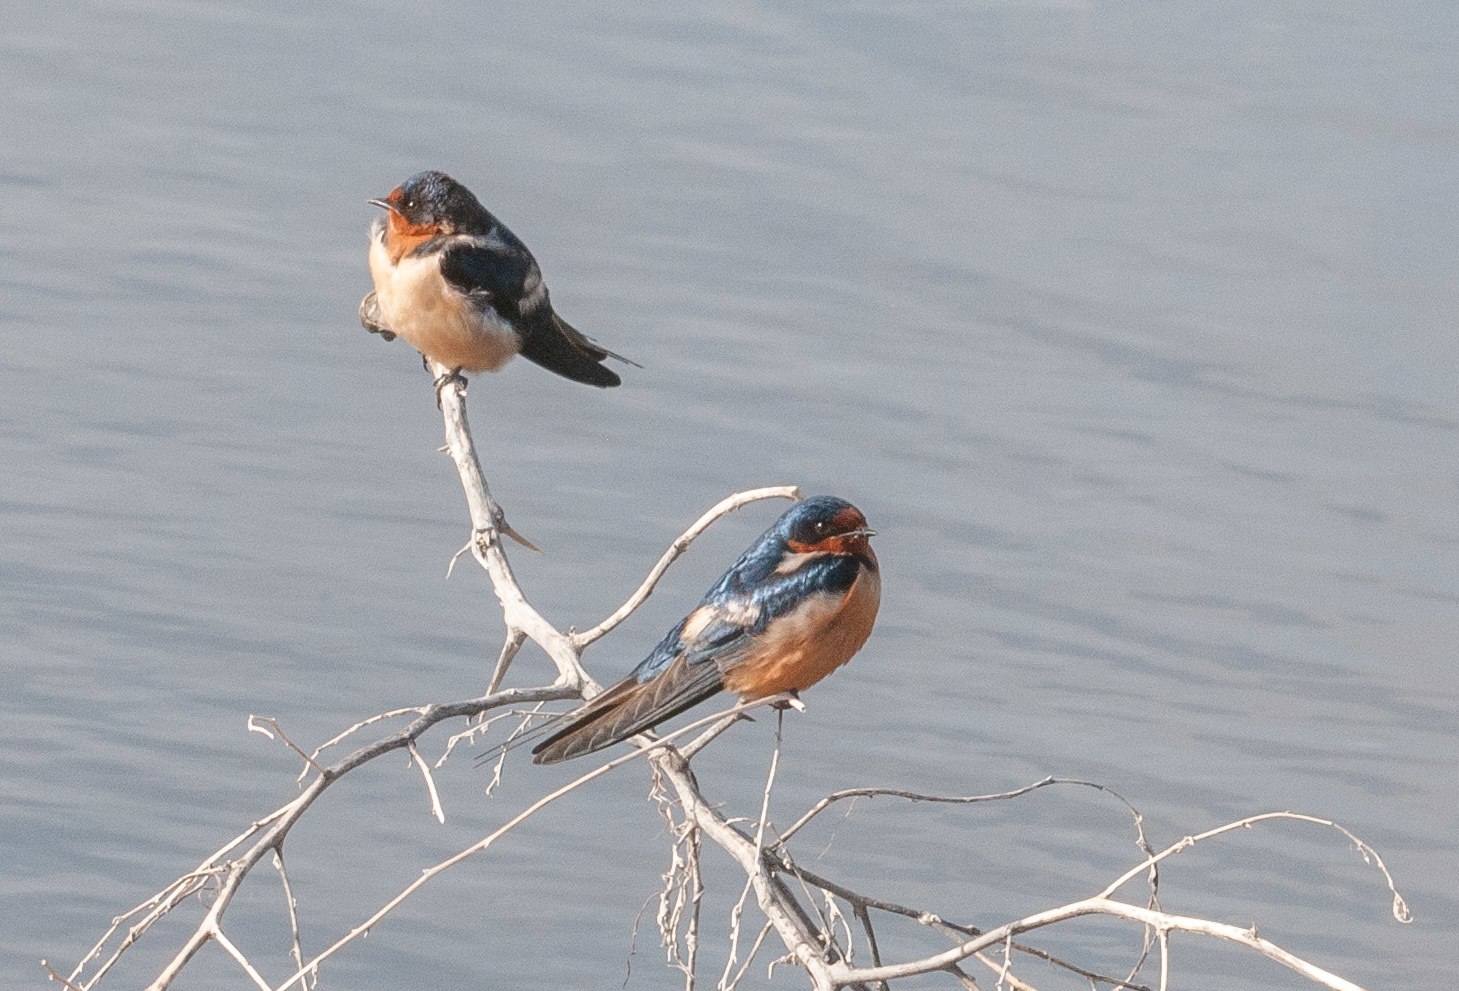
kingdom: Animalia
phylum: Chordata
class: Aves
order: Passeriformes
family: Hirundinidae
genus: Hirundo
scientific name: Hirundo rustica
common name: Barn swallow
